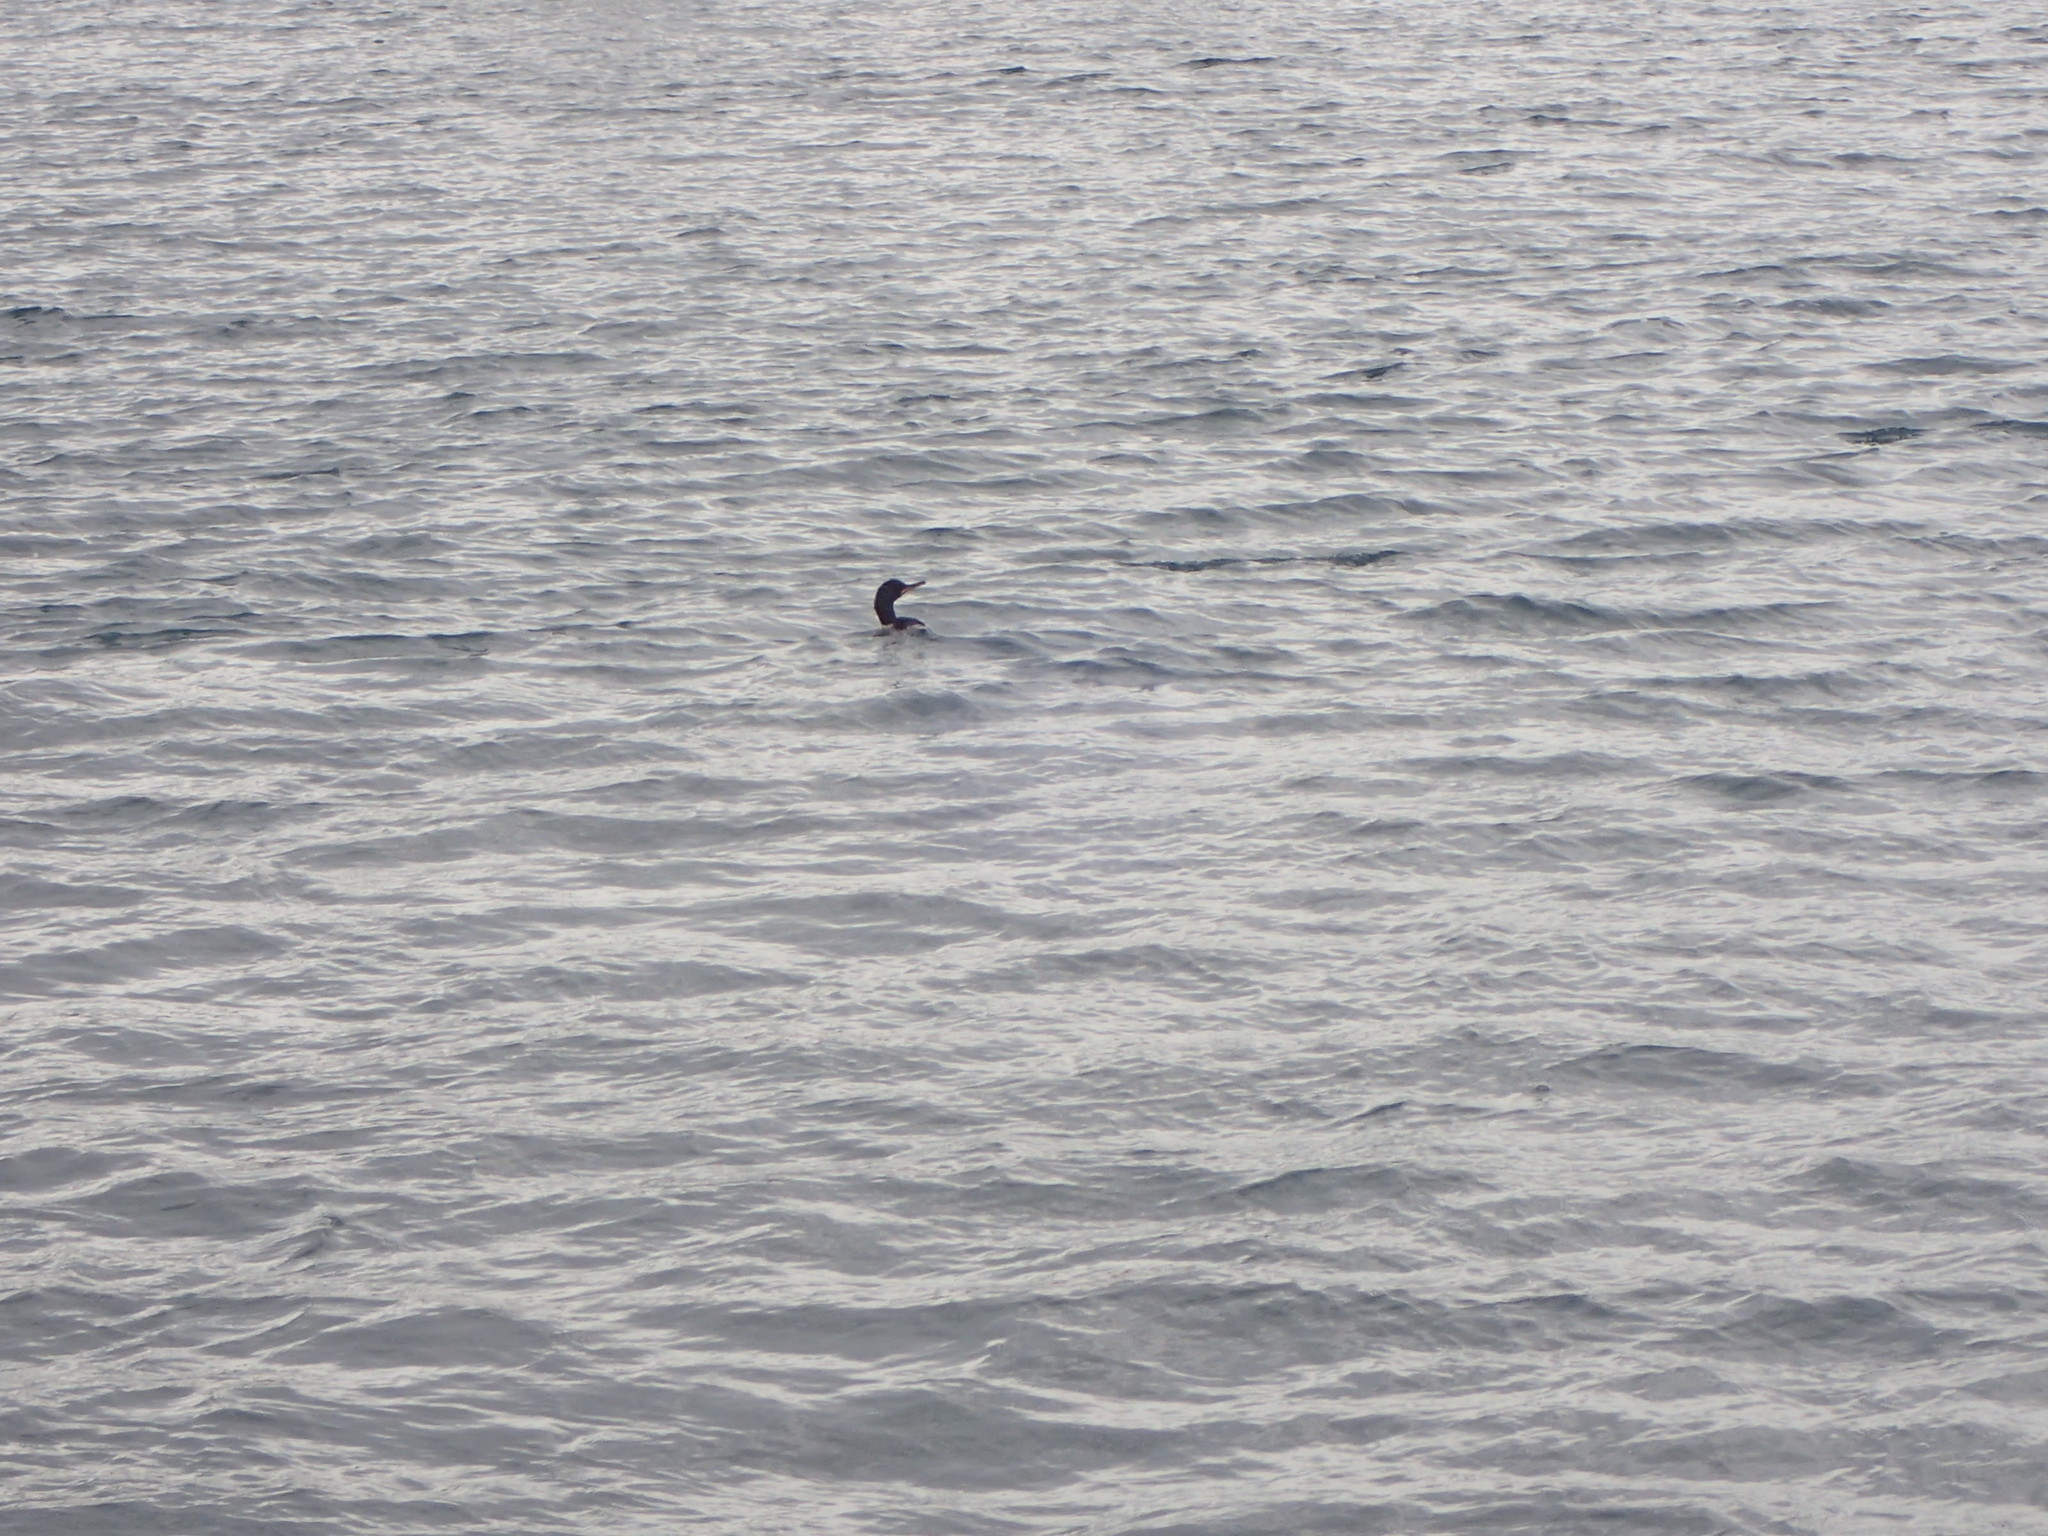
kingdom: Animalia
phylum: Chordata
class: Aves
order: Suliformes
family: Phalacrocoracidae
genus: Phalacrocorax
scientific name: Phalacrocorax aristotelis
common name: European shag
